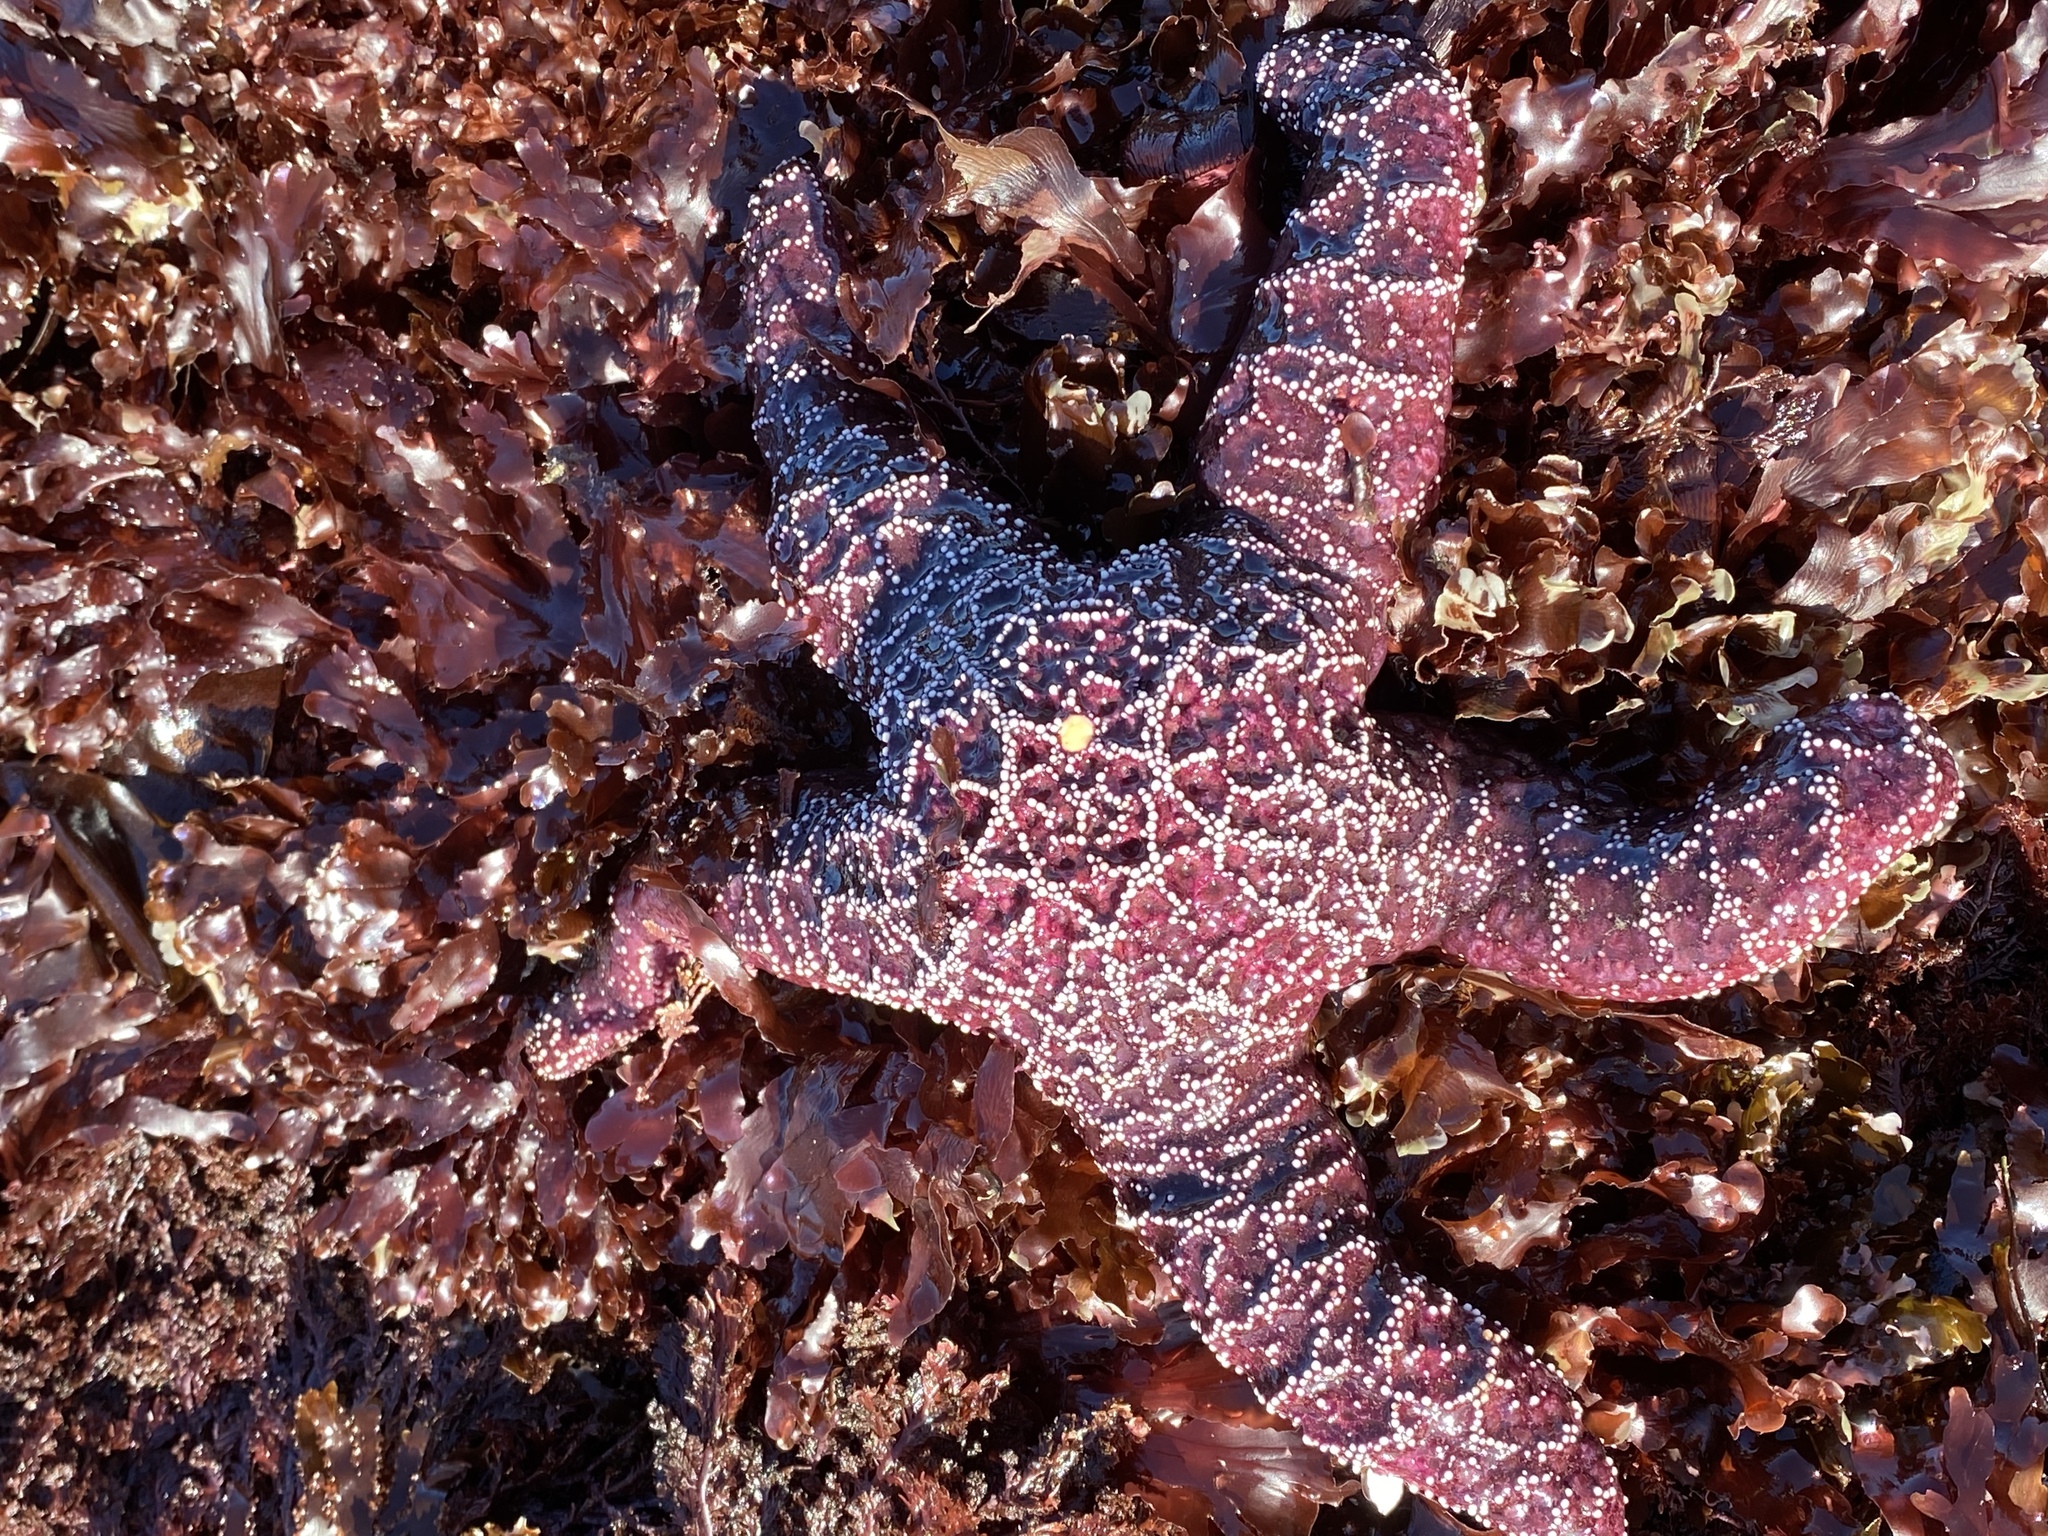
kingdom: Animalia
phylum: Echinodermata
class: Asteroidea
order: Forcipulatida
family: Asteriidae
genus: Pisaster
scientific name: Pisaster ochraceus
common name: Ochre stars
